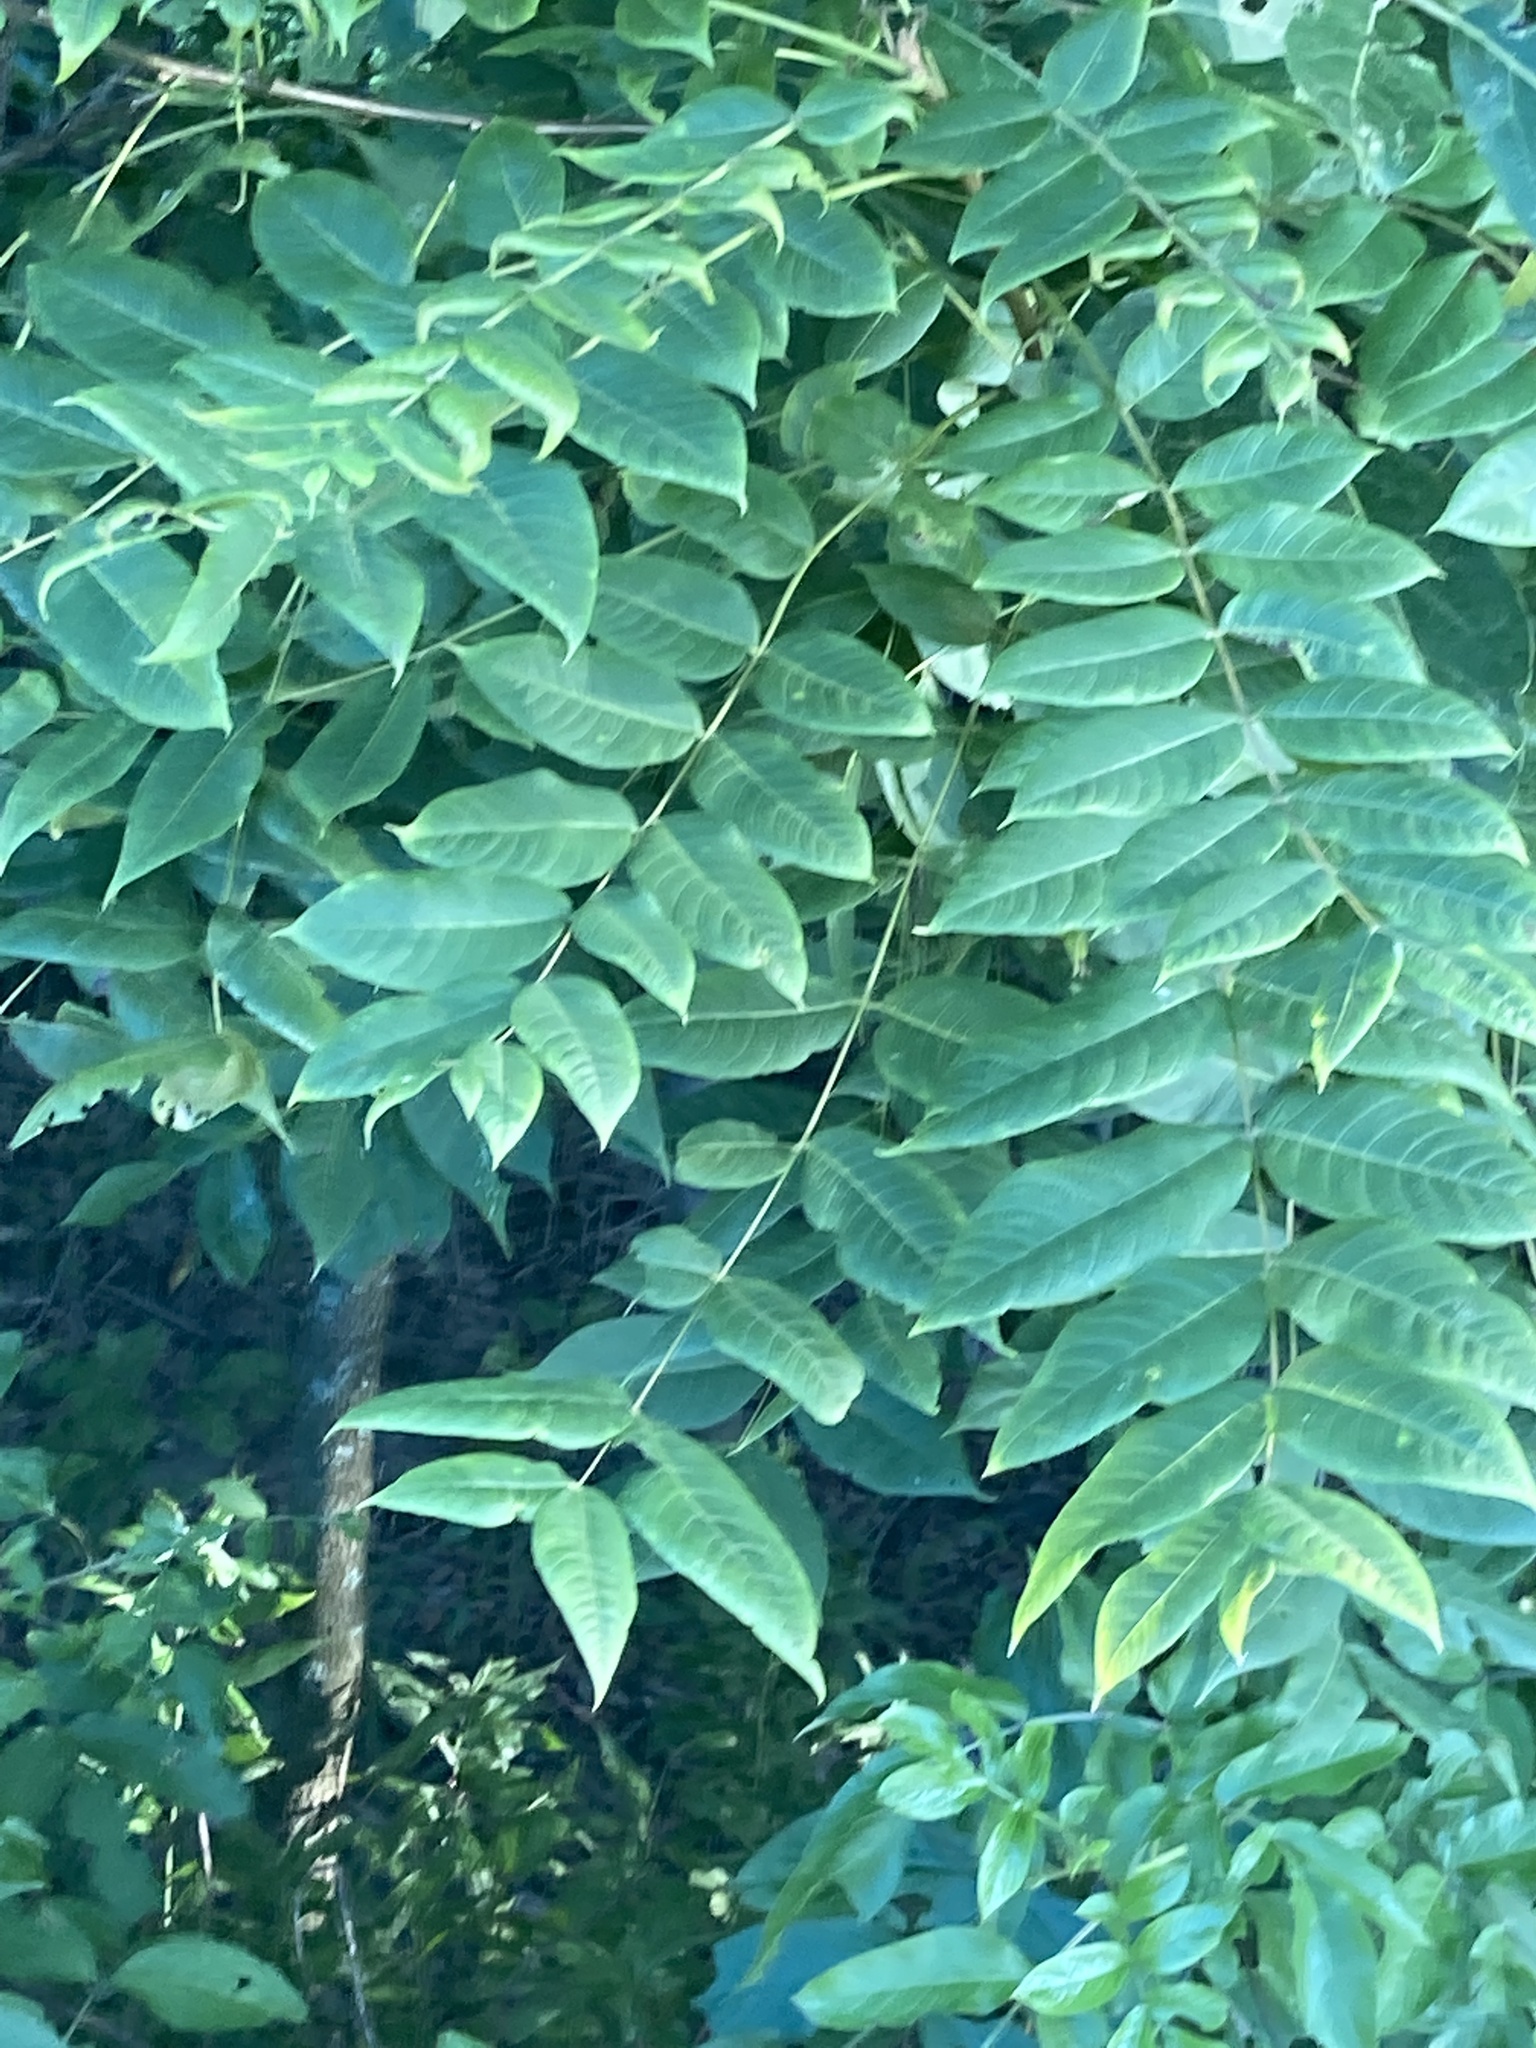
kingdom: Plantae
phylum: Tracheophyta
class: Magnoliopsida
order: Fagales
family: Juglandaceae
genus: Juglans
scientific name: Juglans nigra
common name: Black walnut
